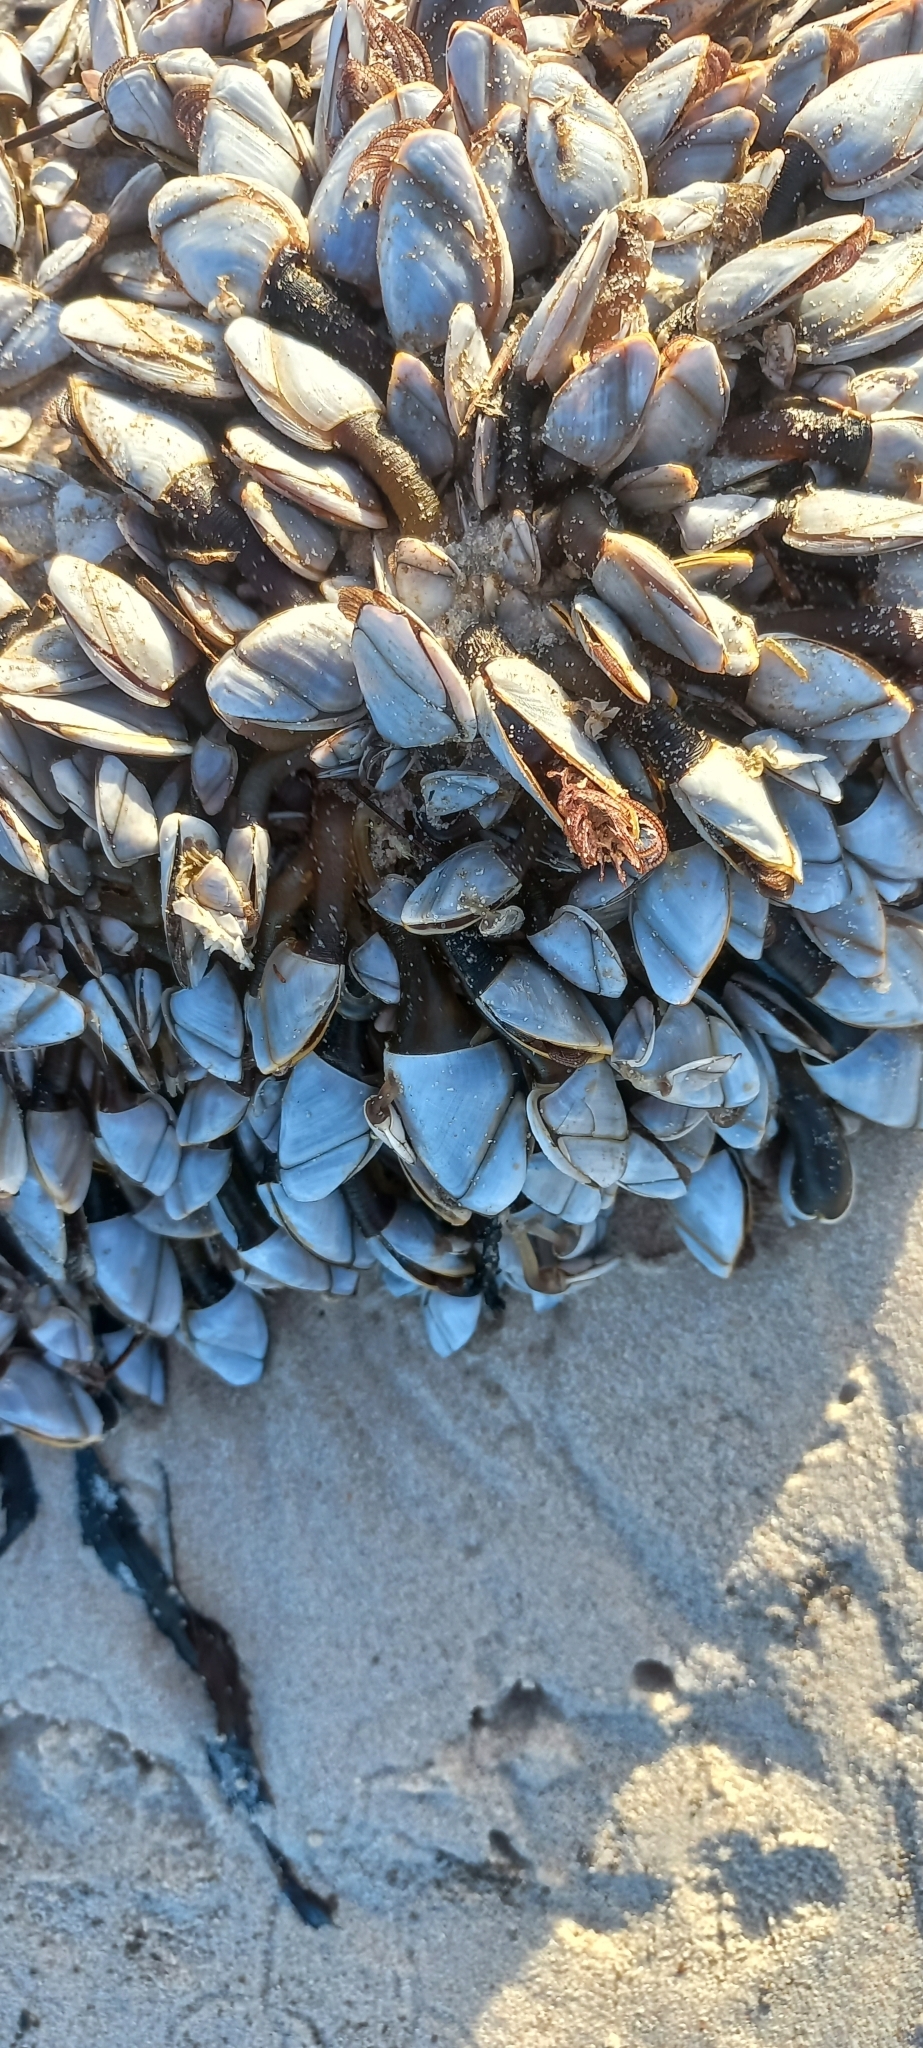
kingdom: Animalia
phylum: Arthropoda
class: Maxillopoda
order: Pedunculata
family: Lepadidae
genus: Lepas
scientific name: Lepas anatifera
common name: Common goose barnacle
